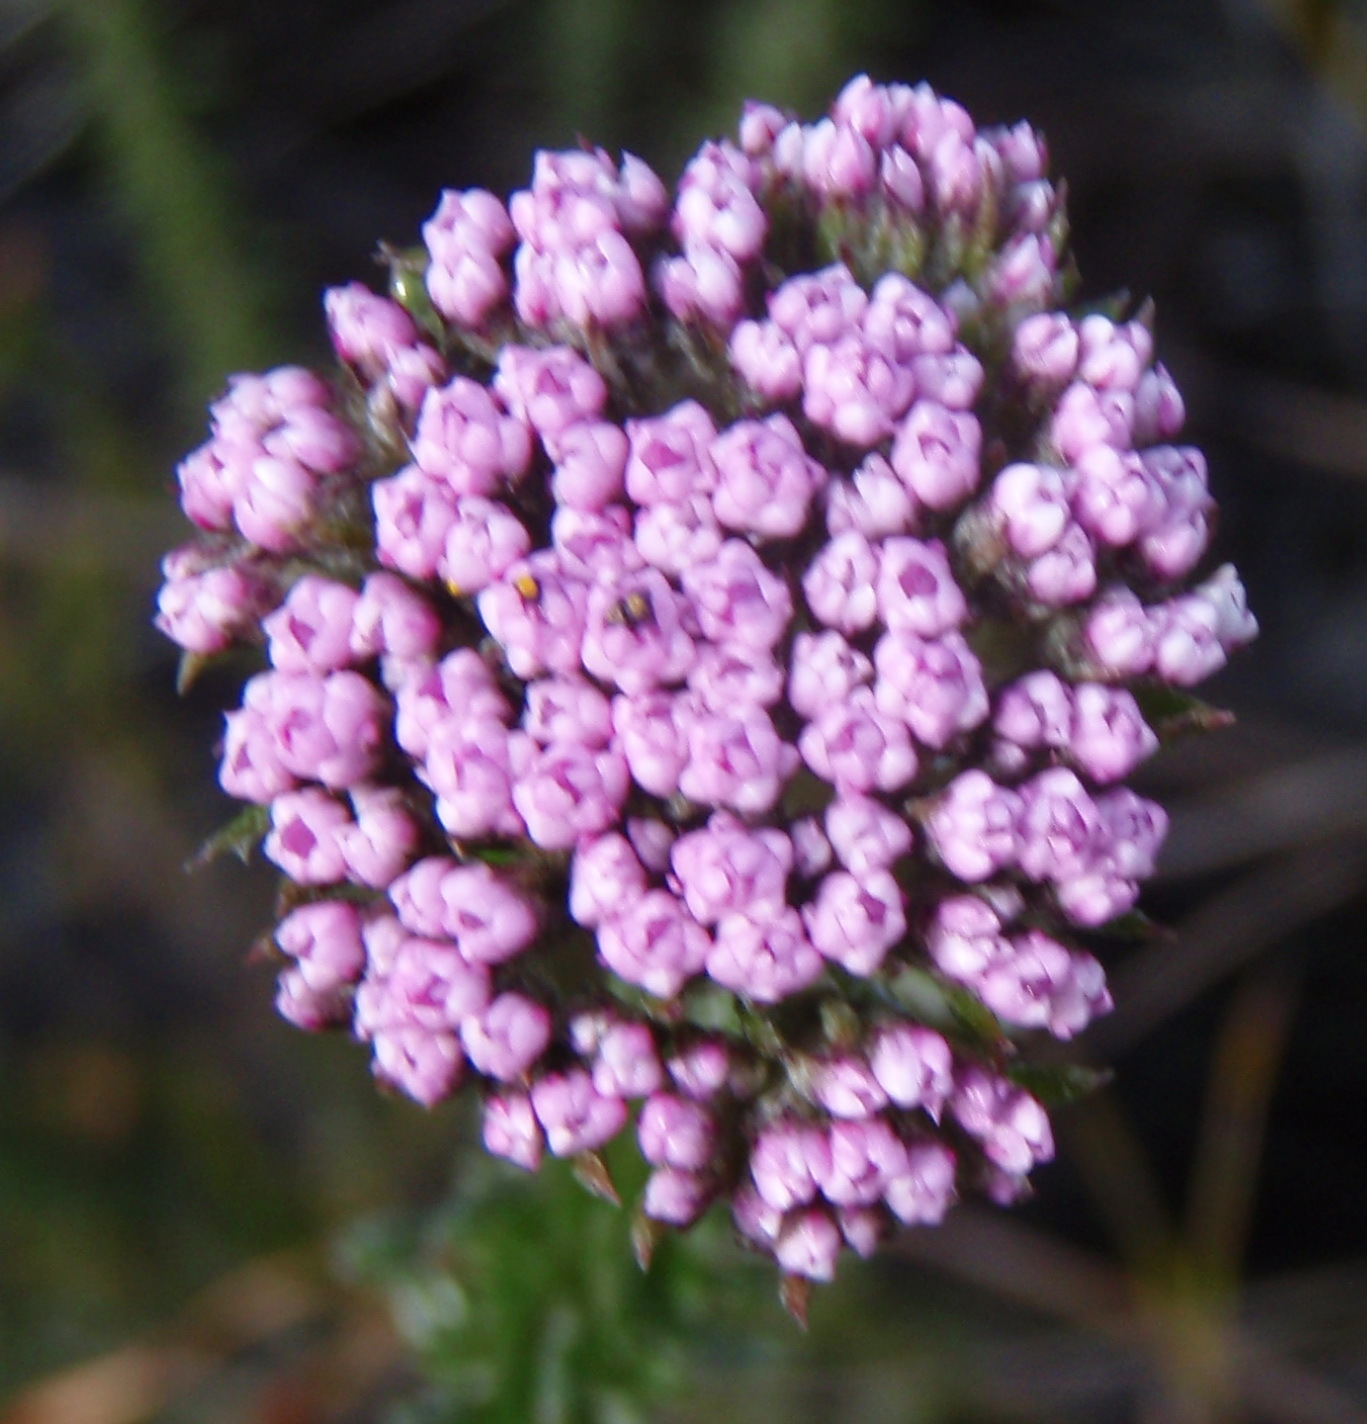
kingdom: Plantae
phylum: Tracheophyta
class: Magnoliopsida
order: Asterales
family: Asteraceae
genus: Metalasia
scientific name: Metalasia erubescens
